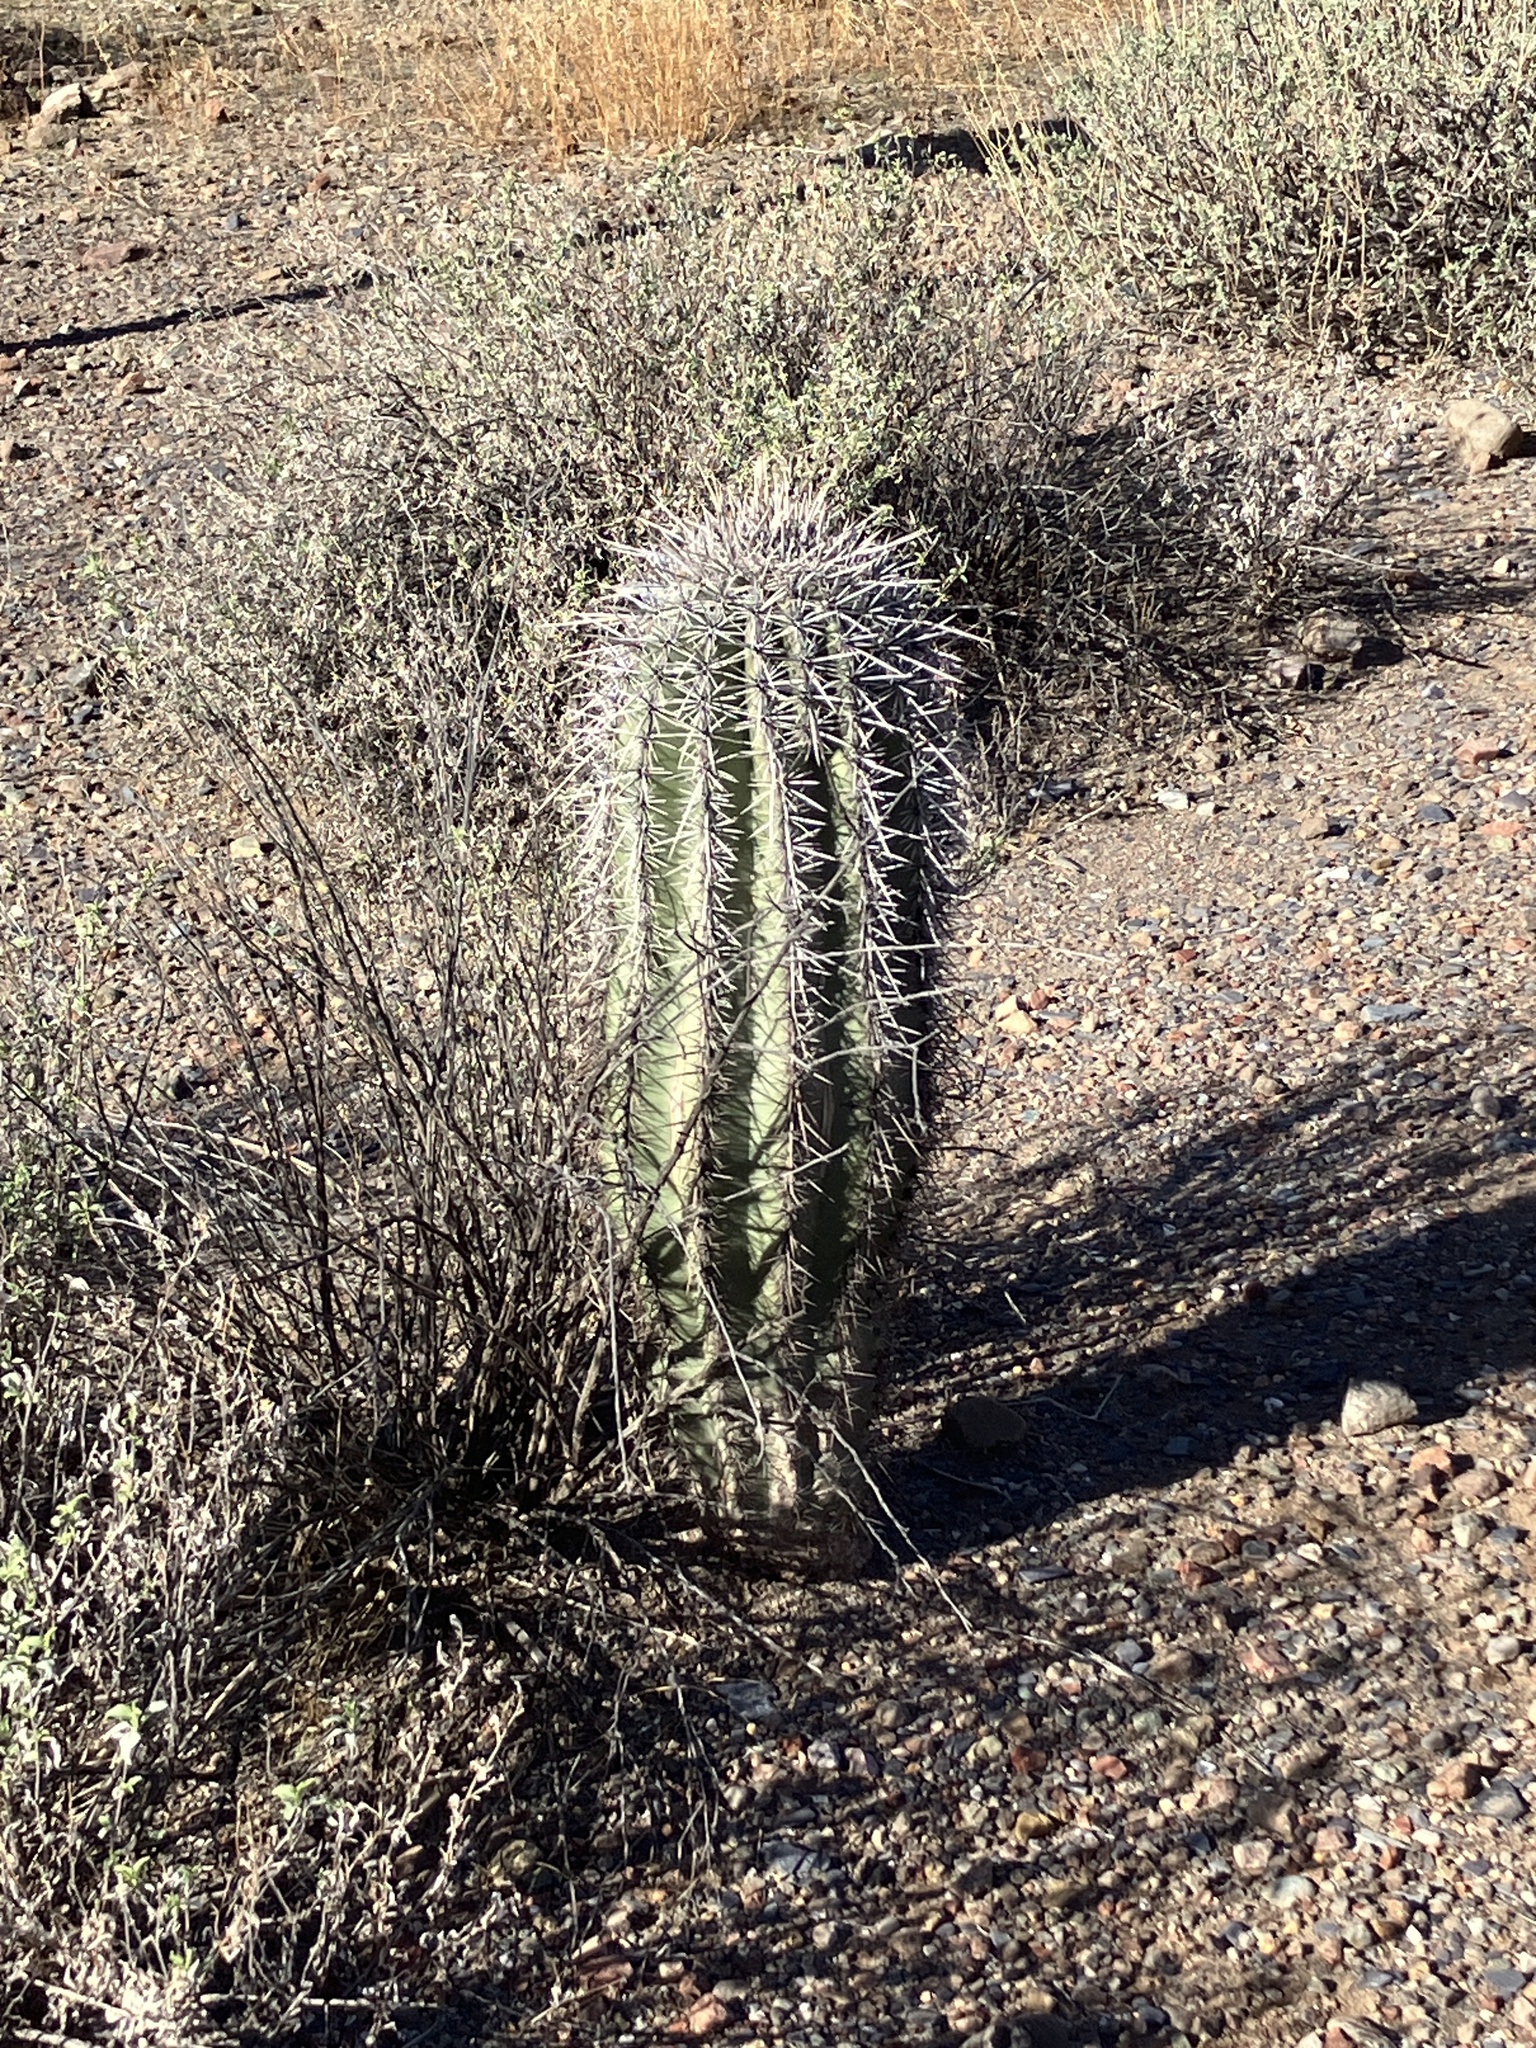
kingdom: Plantae
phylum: Tracheophyta
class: Magnoliopsida
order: Caryophyllales
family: Cactaceae
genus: Carnegiea
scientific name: Carnegiea gigantea
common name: Saguaro
